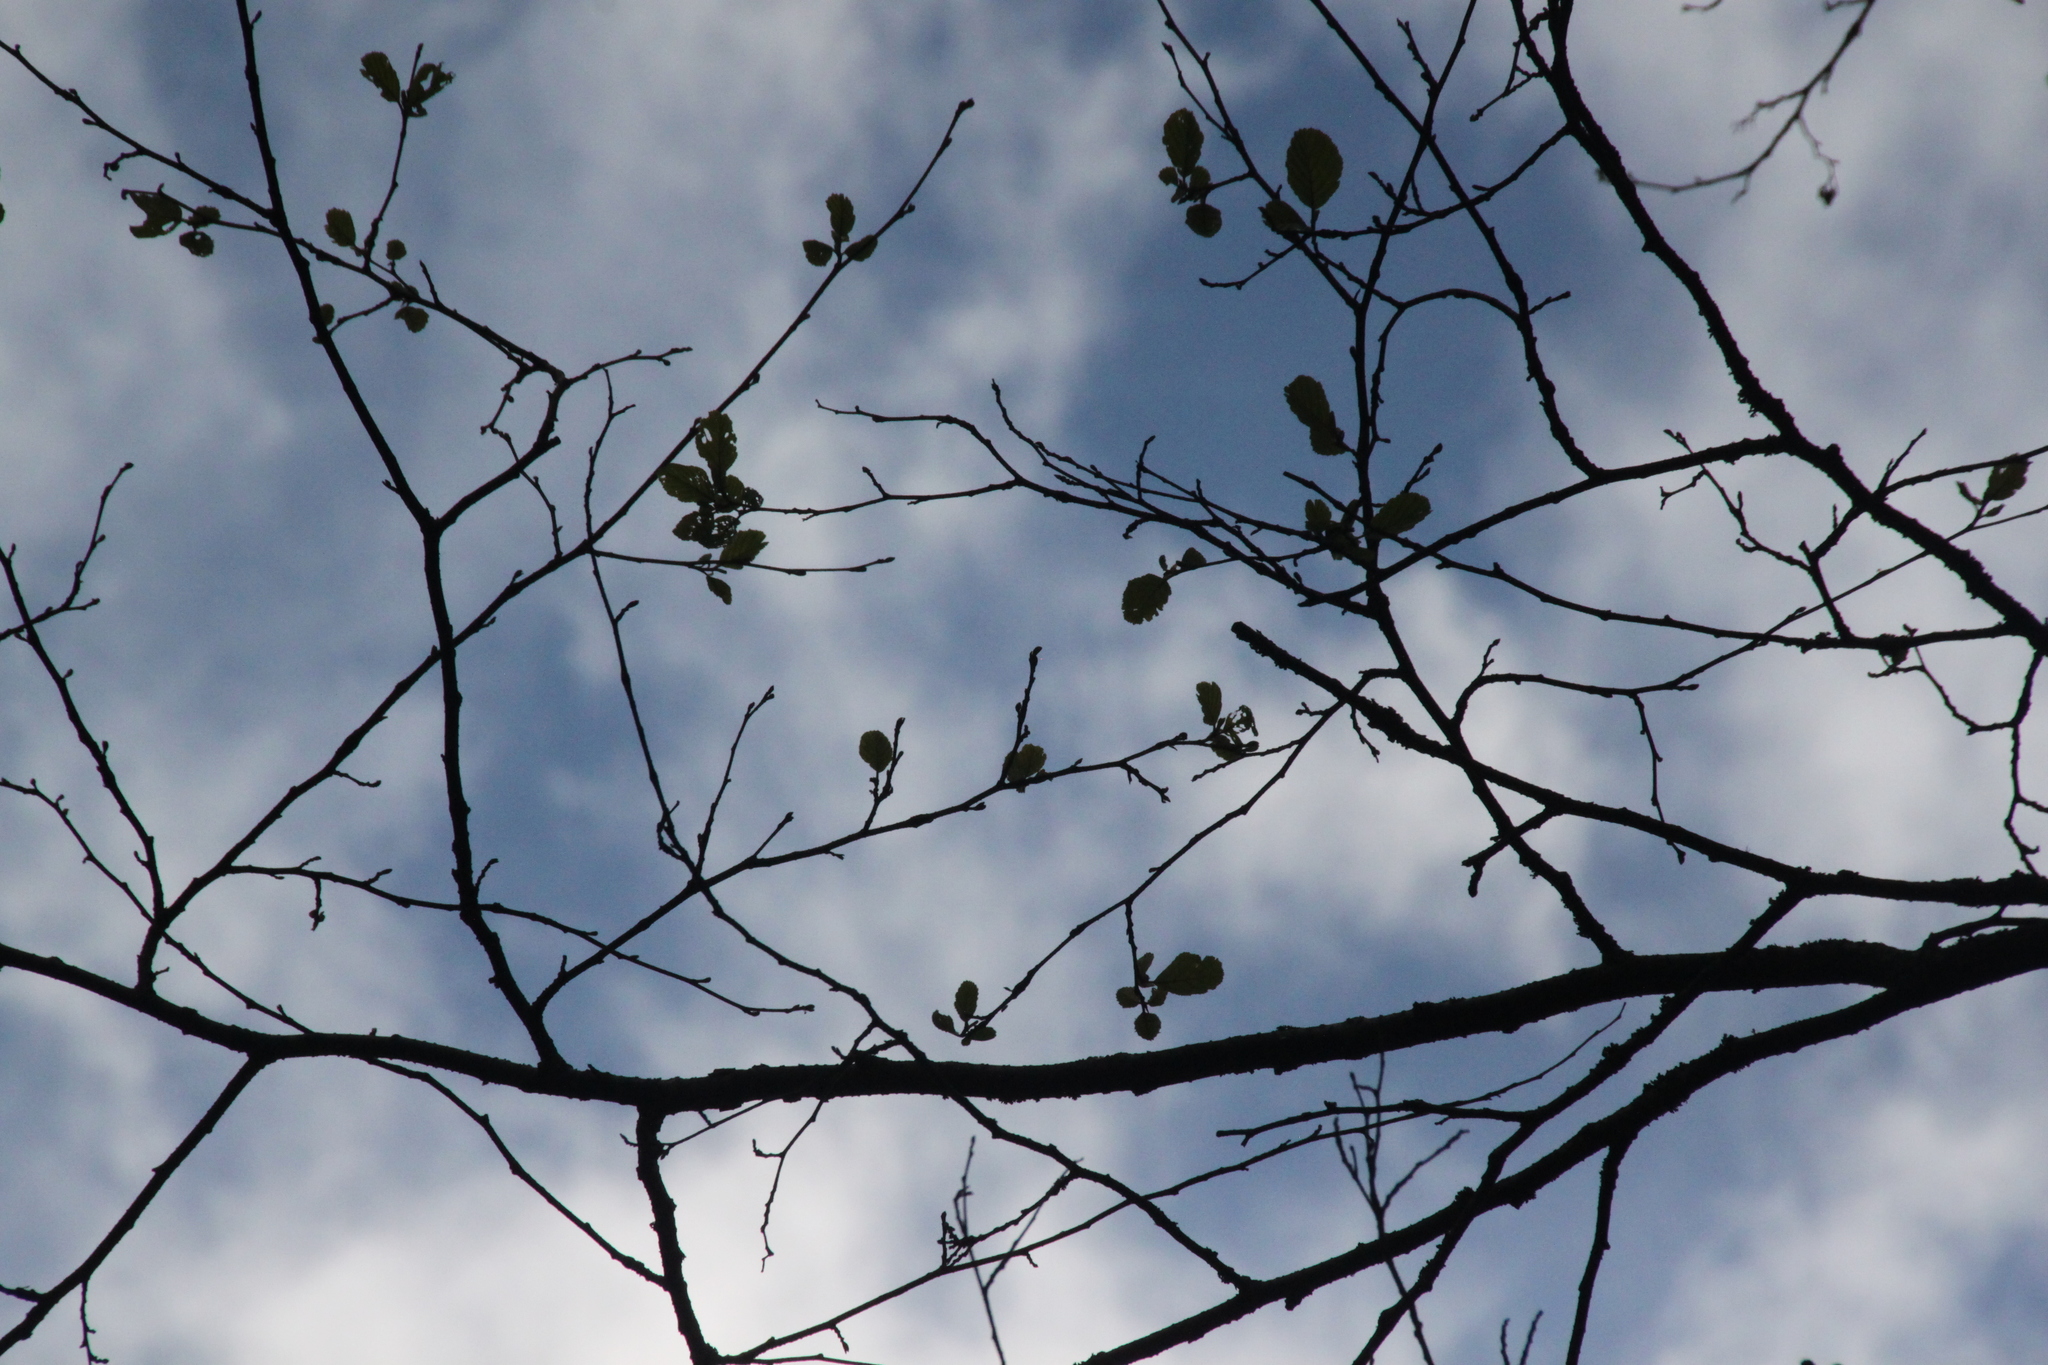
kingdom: Plantae
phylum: Tracheophyta
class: Magnoliopsida
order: Fagales
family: Betulaceae
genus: Alnus
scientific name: Alnus glutinosa
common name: Black alder
